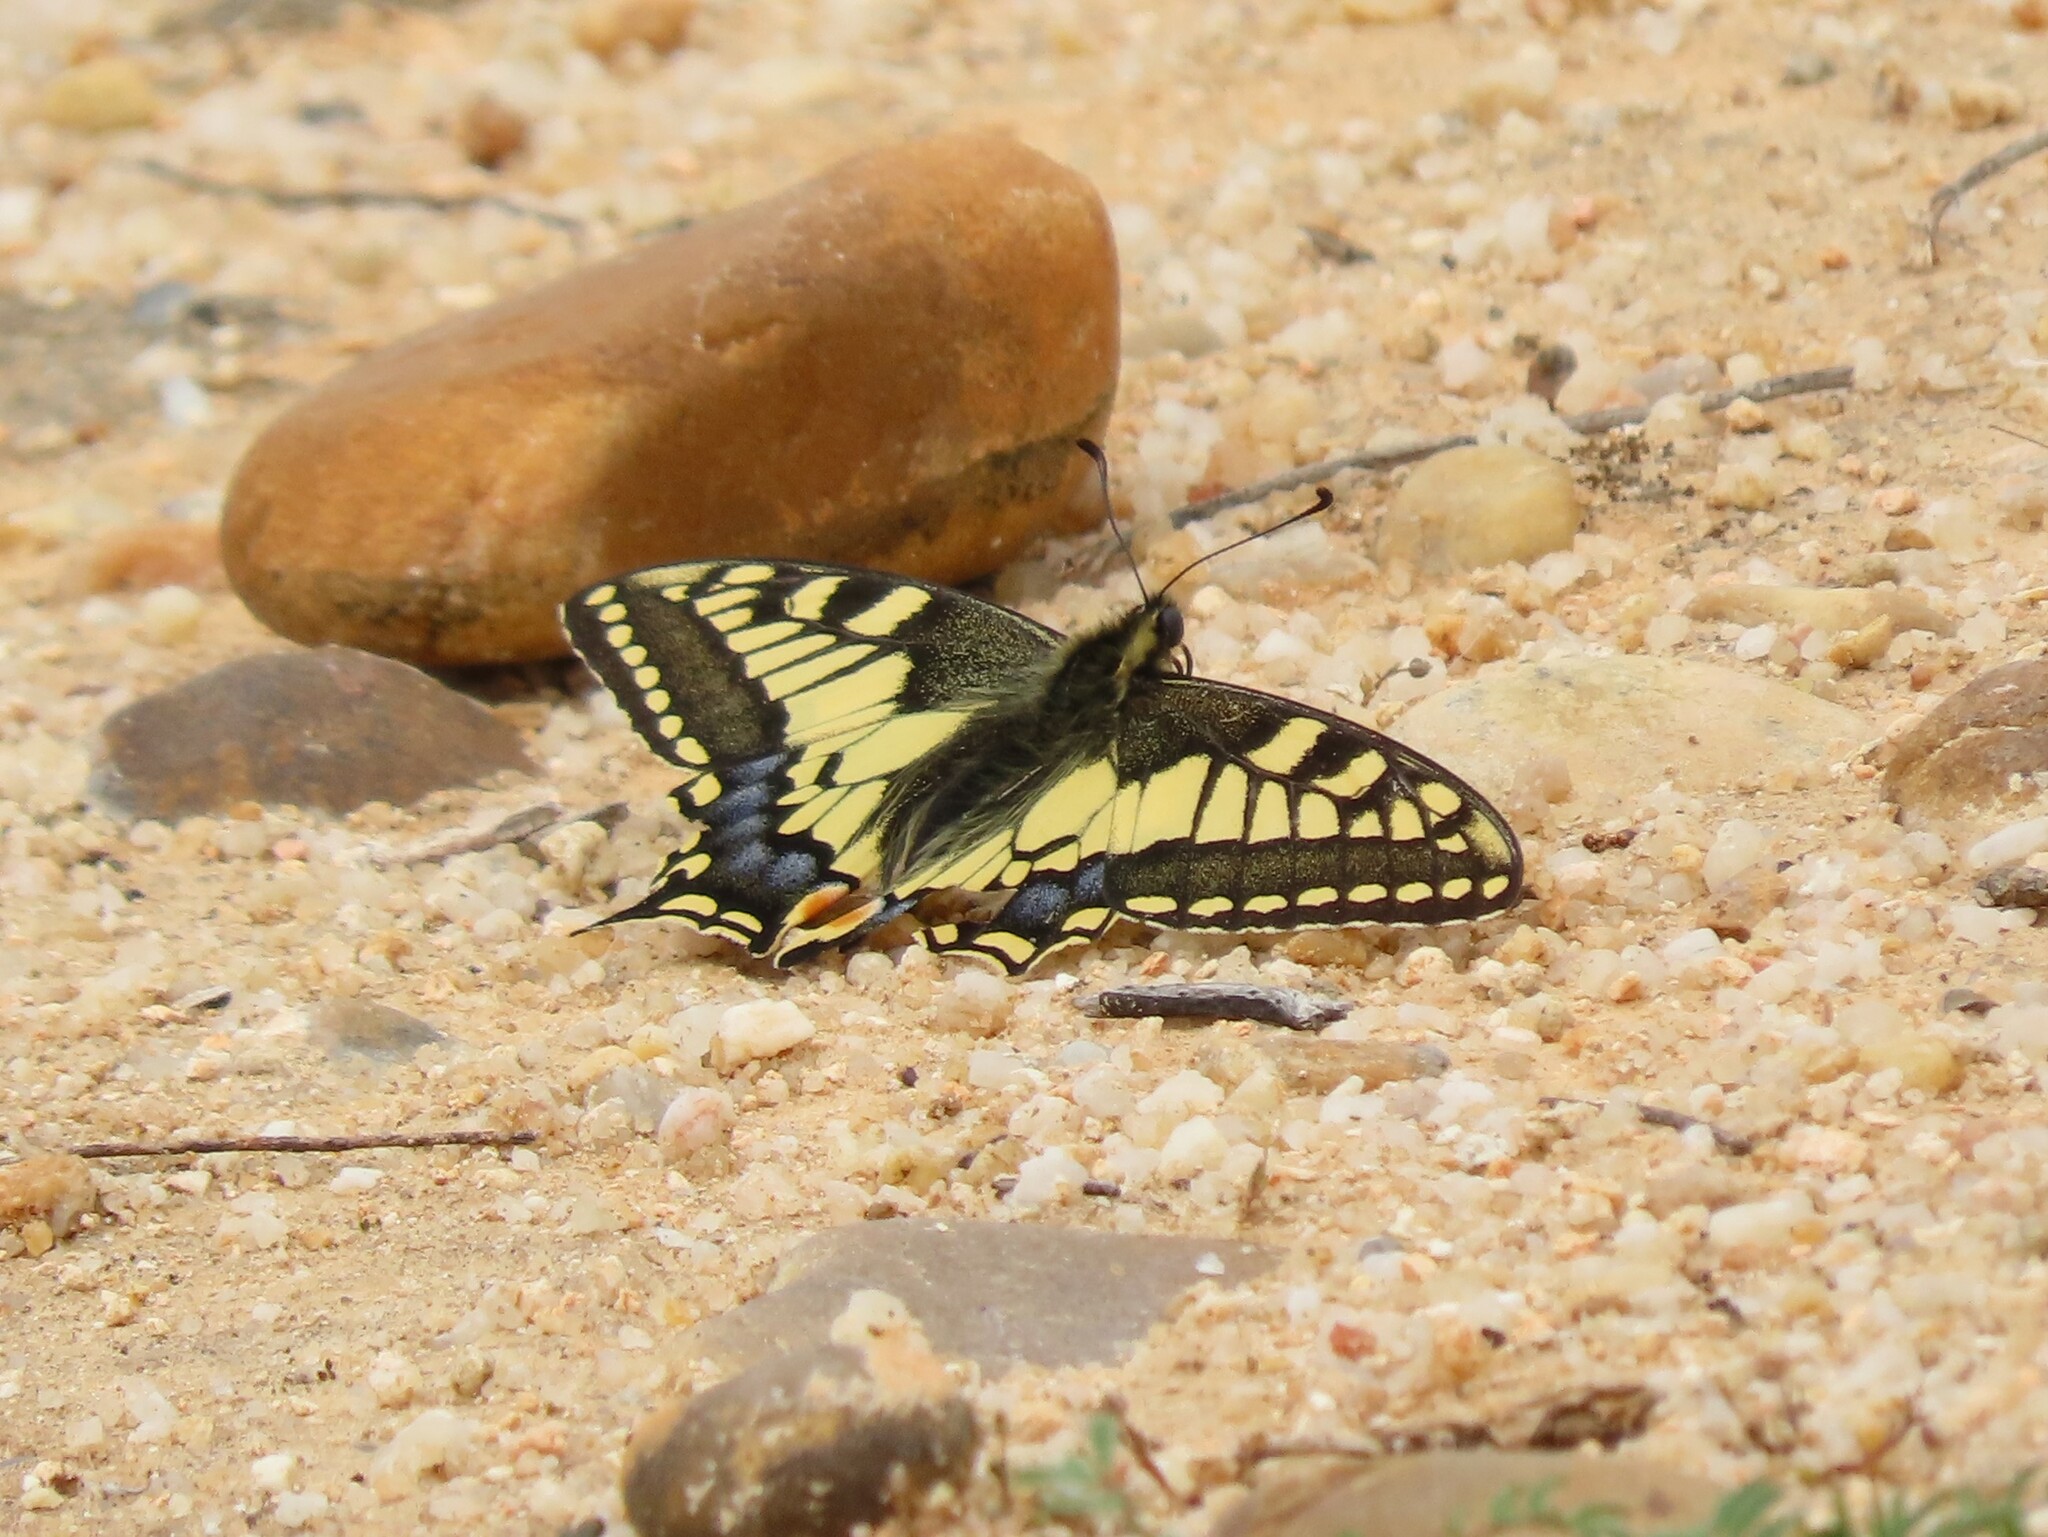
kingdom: Animalia
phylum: Arthropoda
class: Insecta
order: Lepidoptera
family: Papilionidae
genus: Papilio
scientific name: Papilio machaon
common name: Swallowtail
